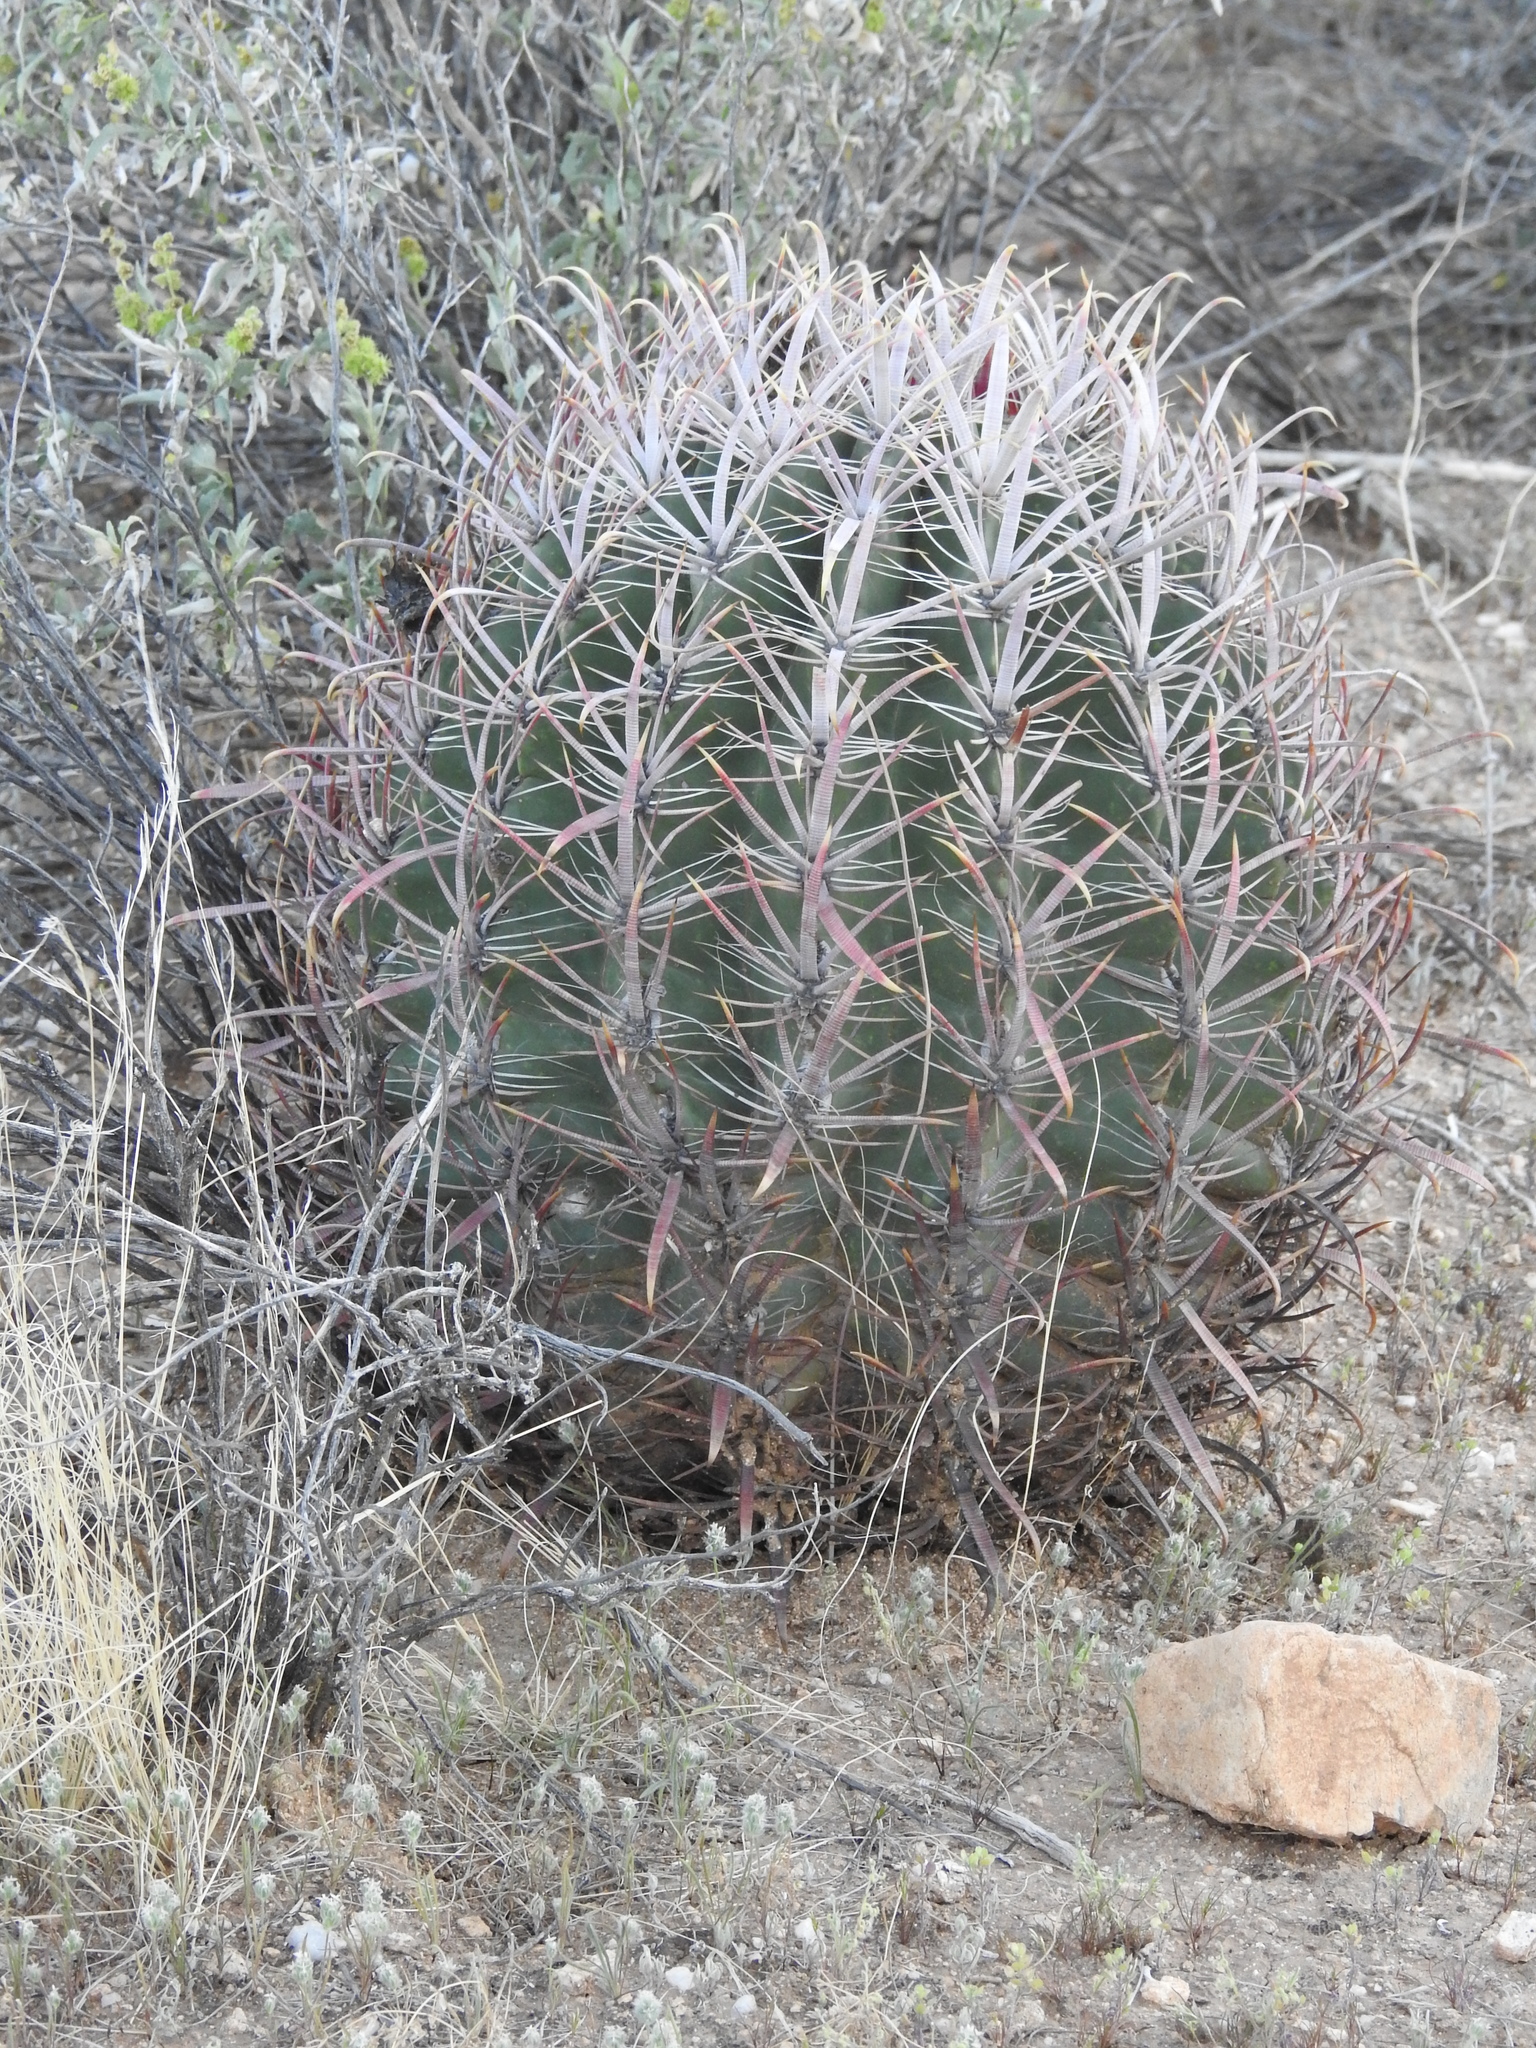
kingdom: Plantae
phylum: Tracheophyta
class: Magnoliopsida
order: Caryophyllales
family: Cactaceae
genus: Ferocactus
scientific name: Ferocactus cylindraceus
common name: California barrel cactus
